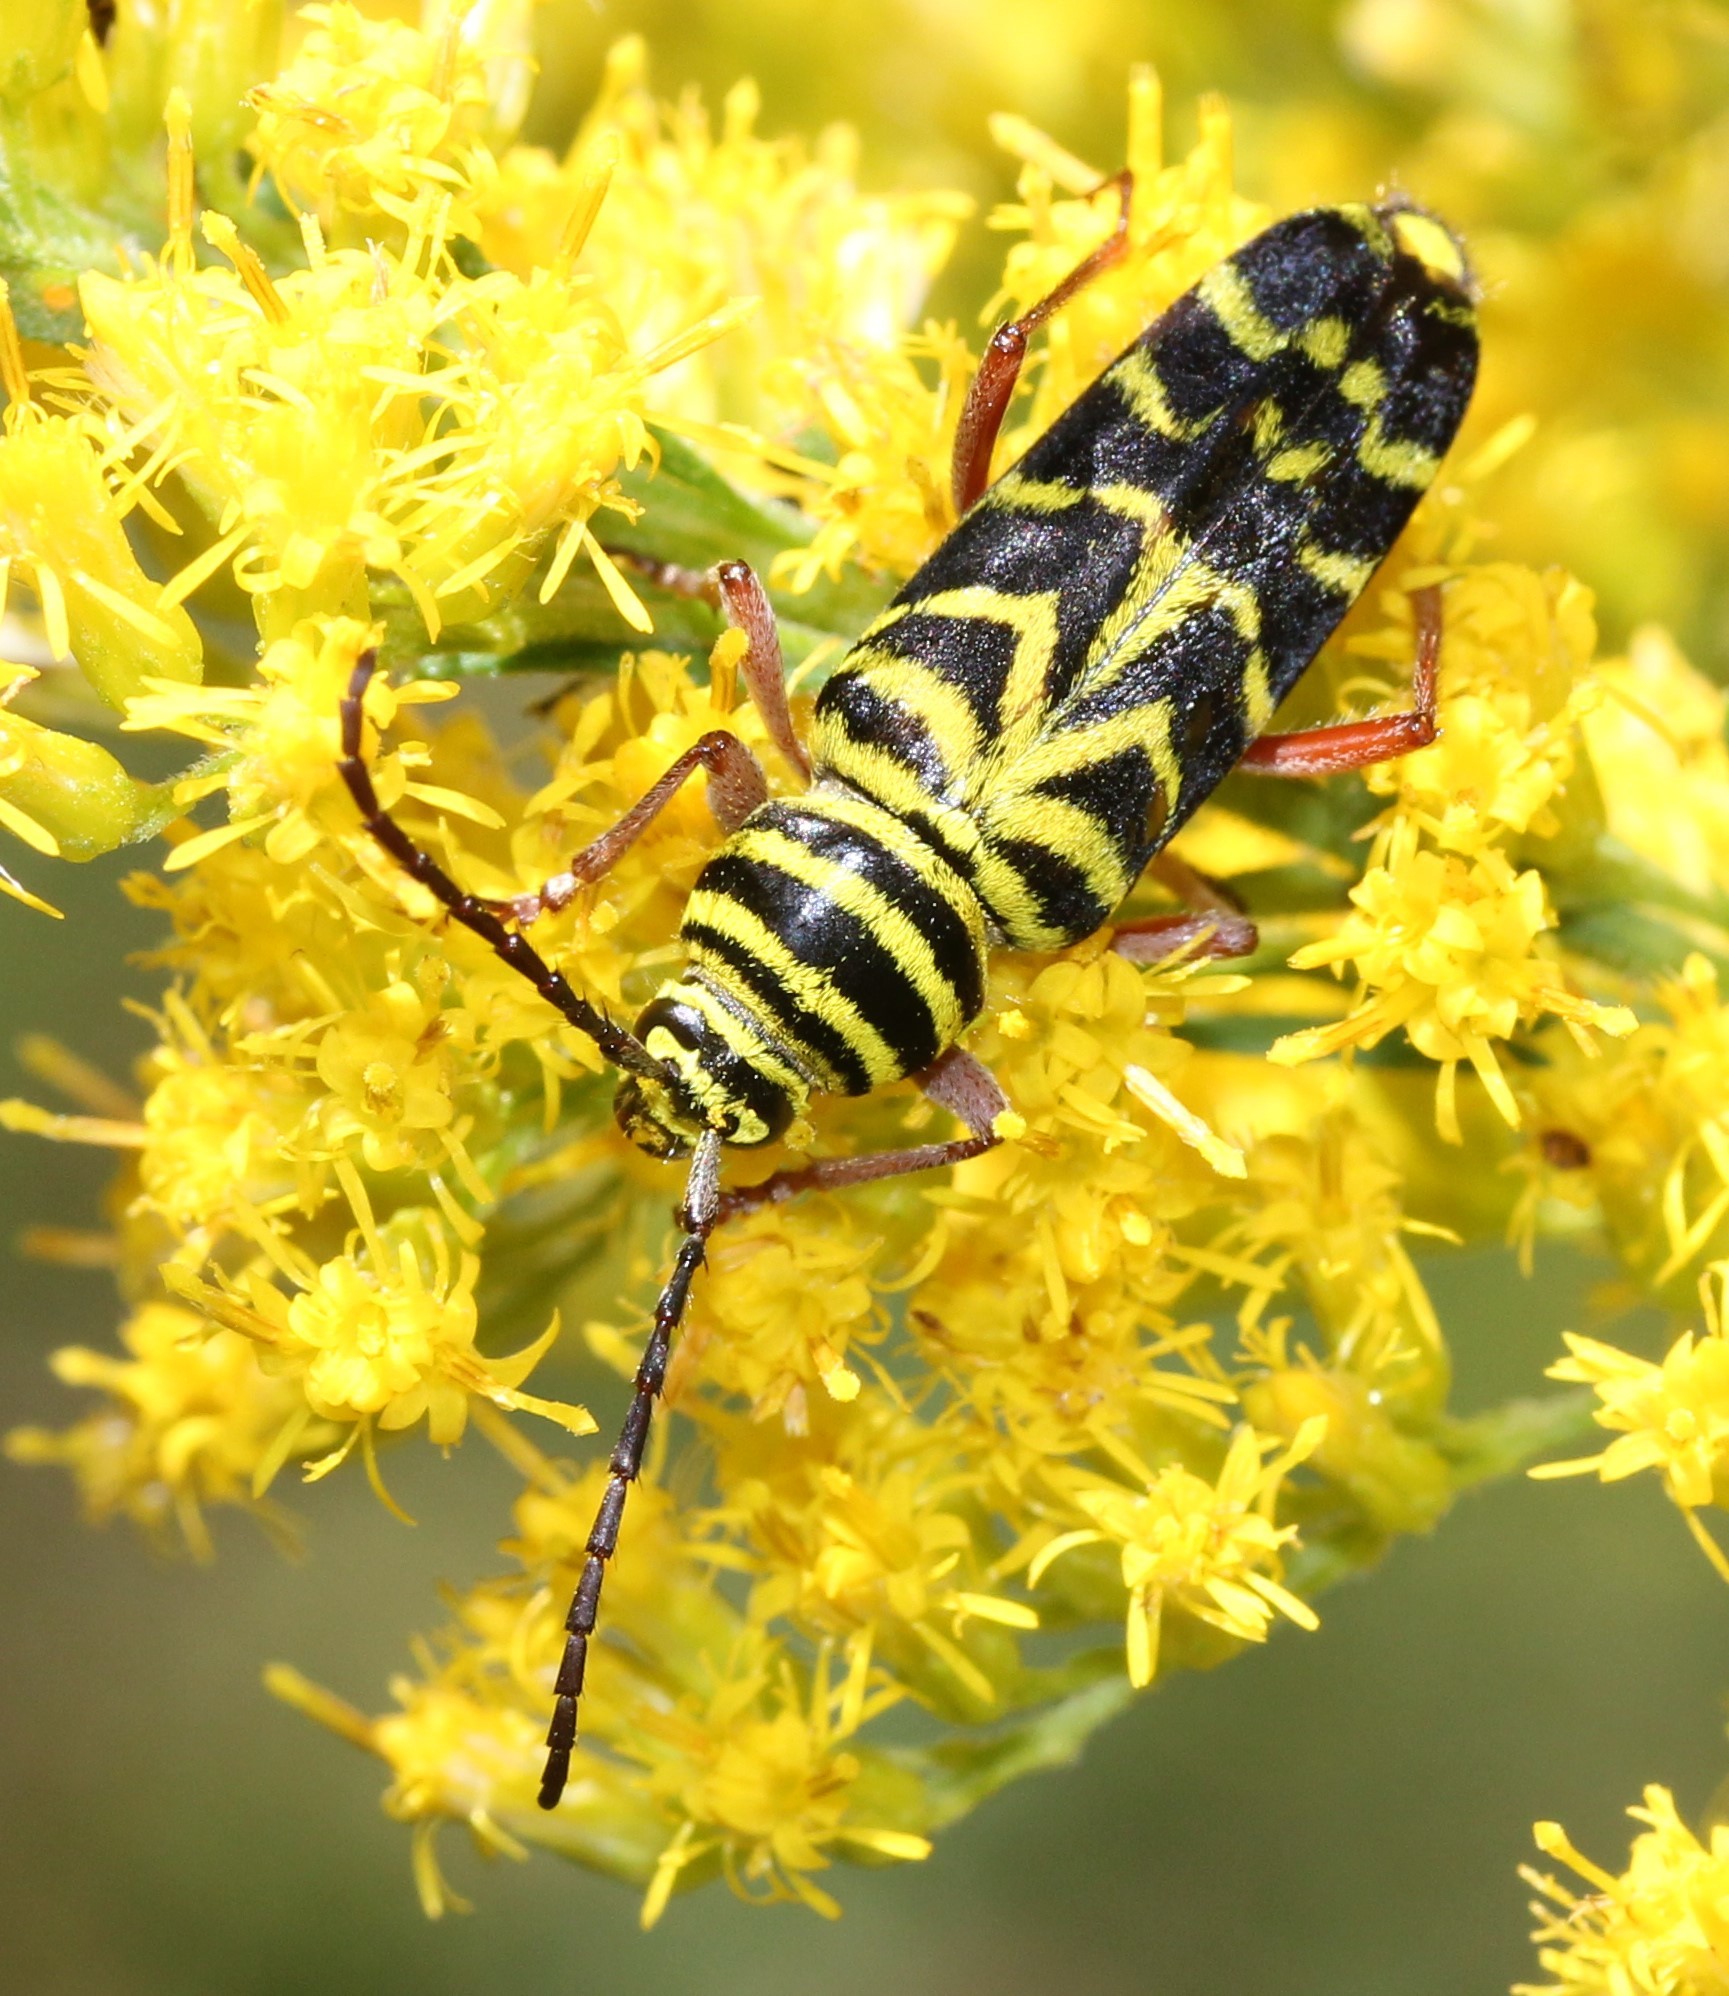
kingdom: Animalia
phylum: Arthropoda
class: Insecta
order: Coleoptera
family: Cerambycidae
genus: Megacyllene
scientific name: Megacyllene robiniae
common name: Locust borer
